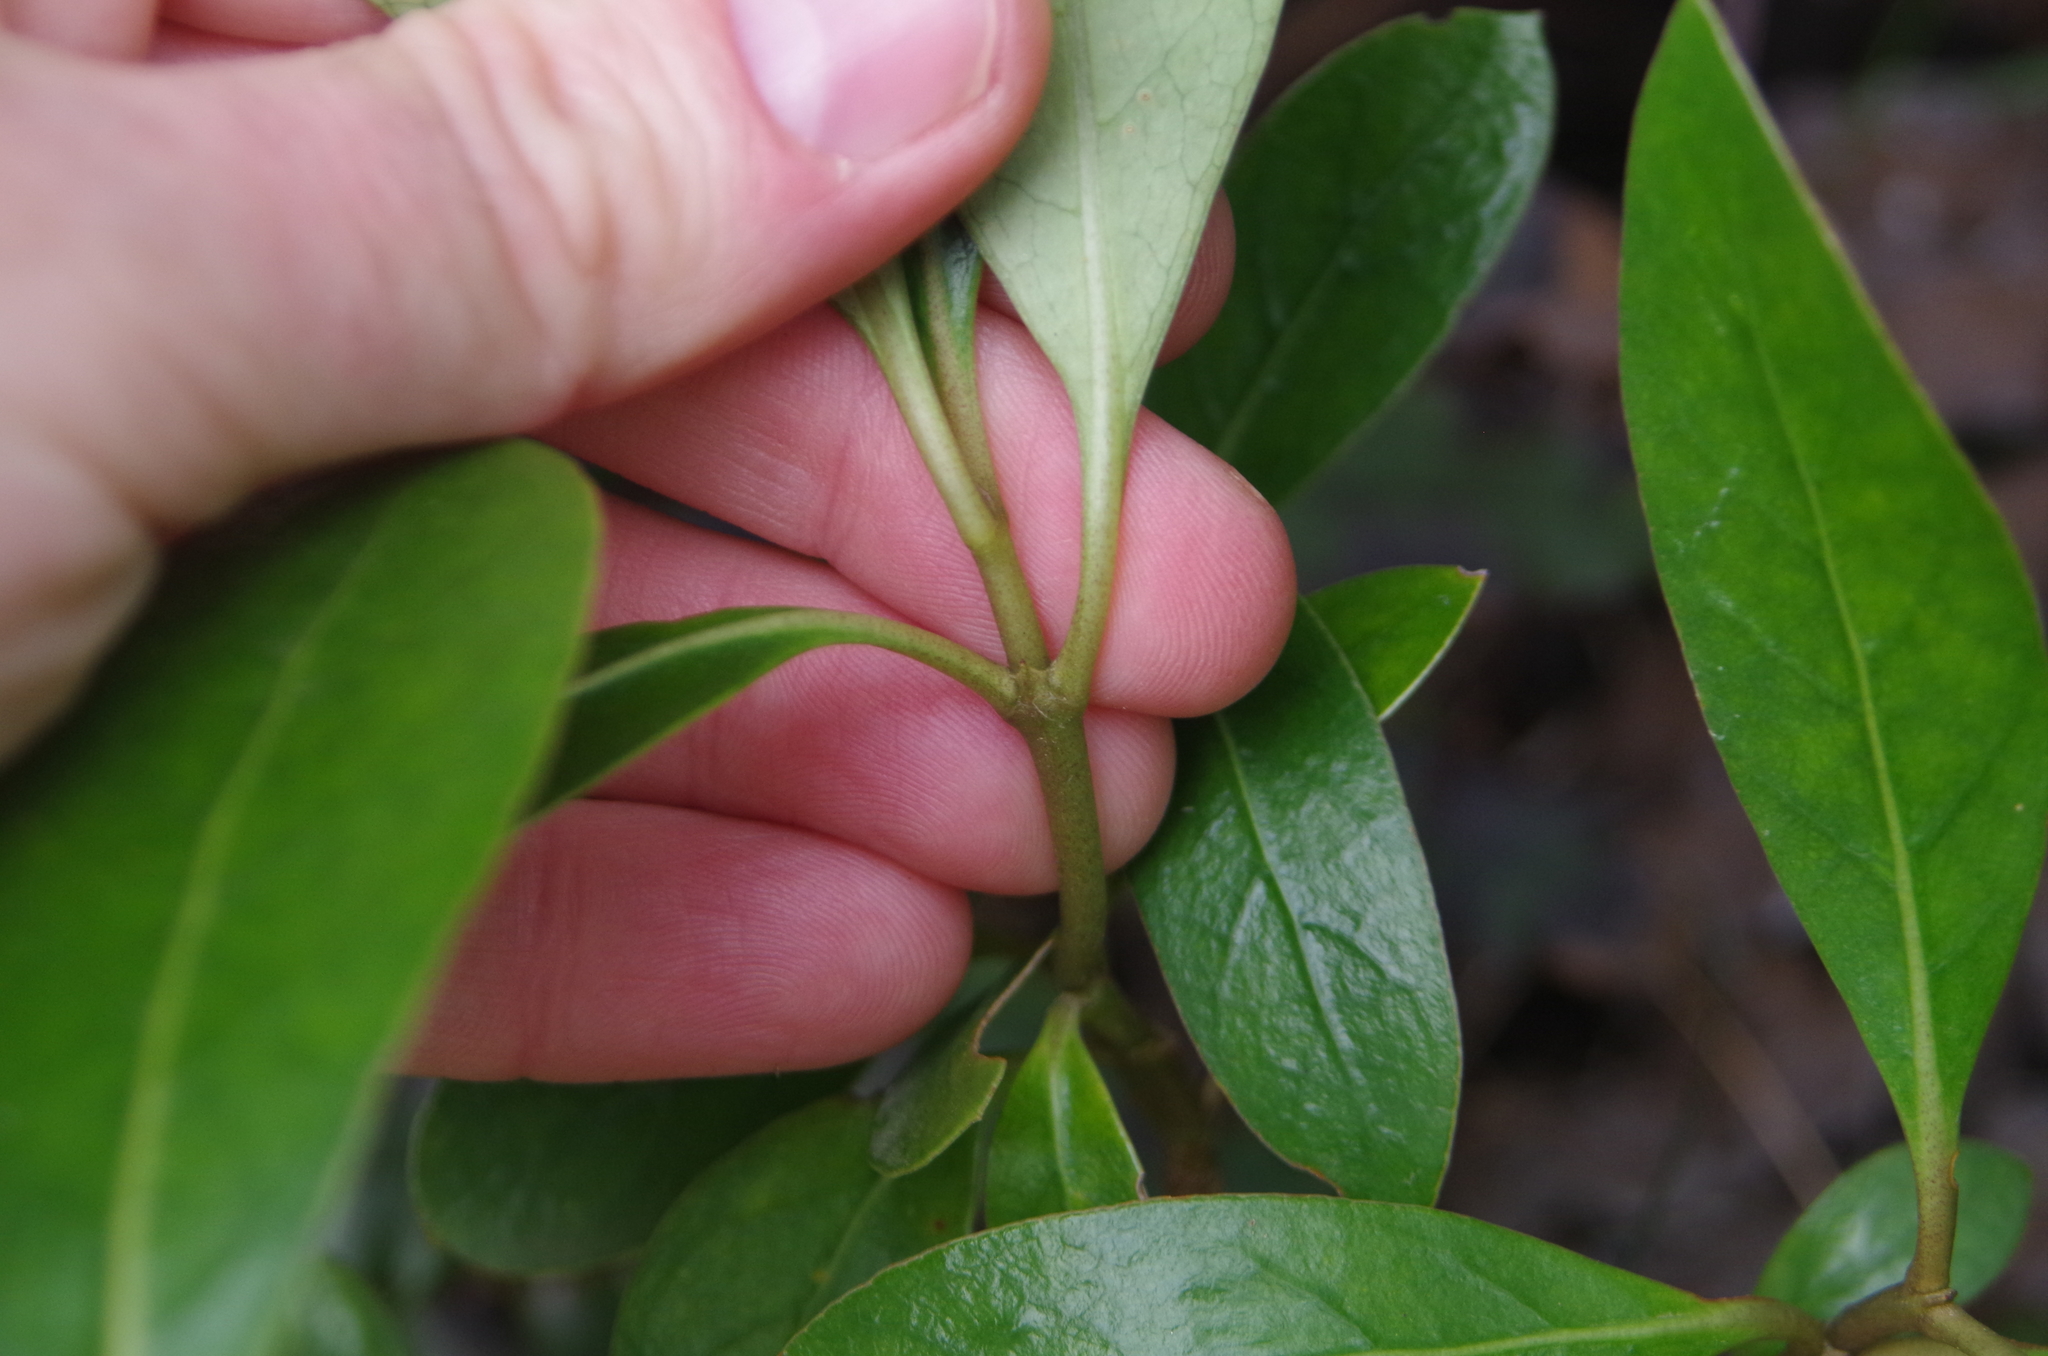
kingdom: Plantae
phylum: Tracheophyta
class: Magnoliopsida
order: Gentianales
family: Rubiaceae
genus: Coprosma
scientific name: Coprosma lucida
